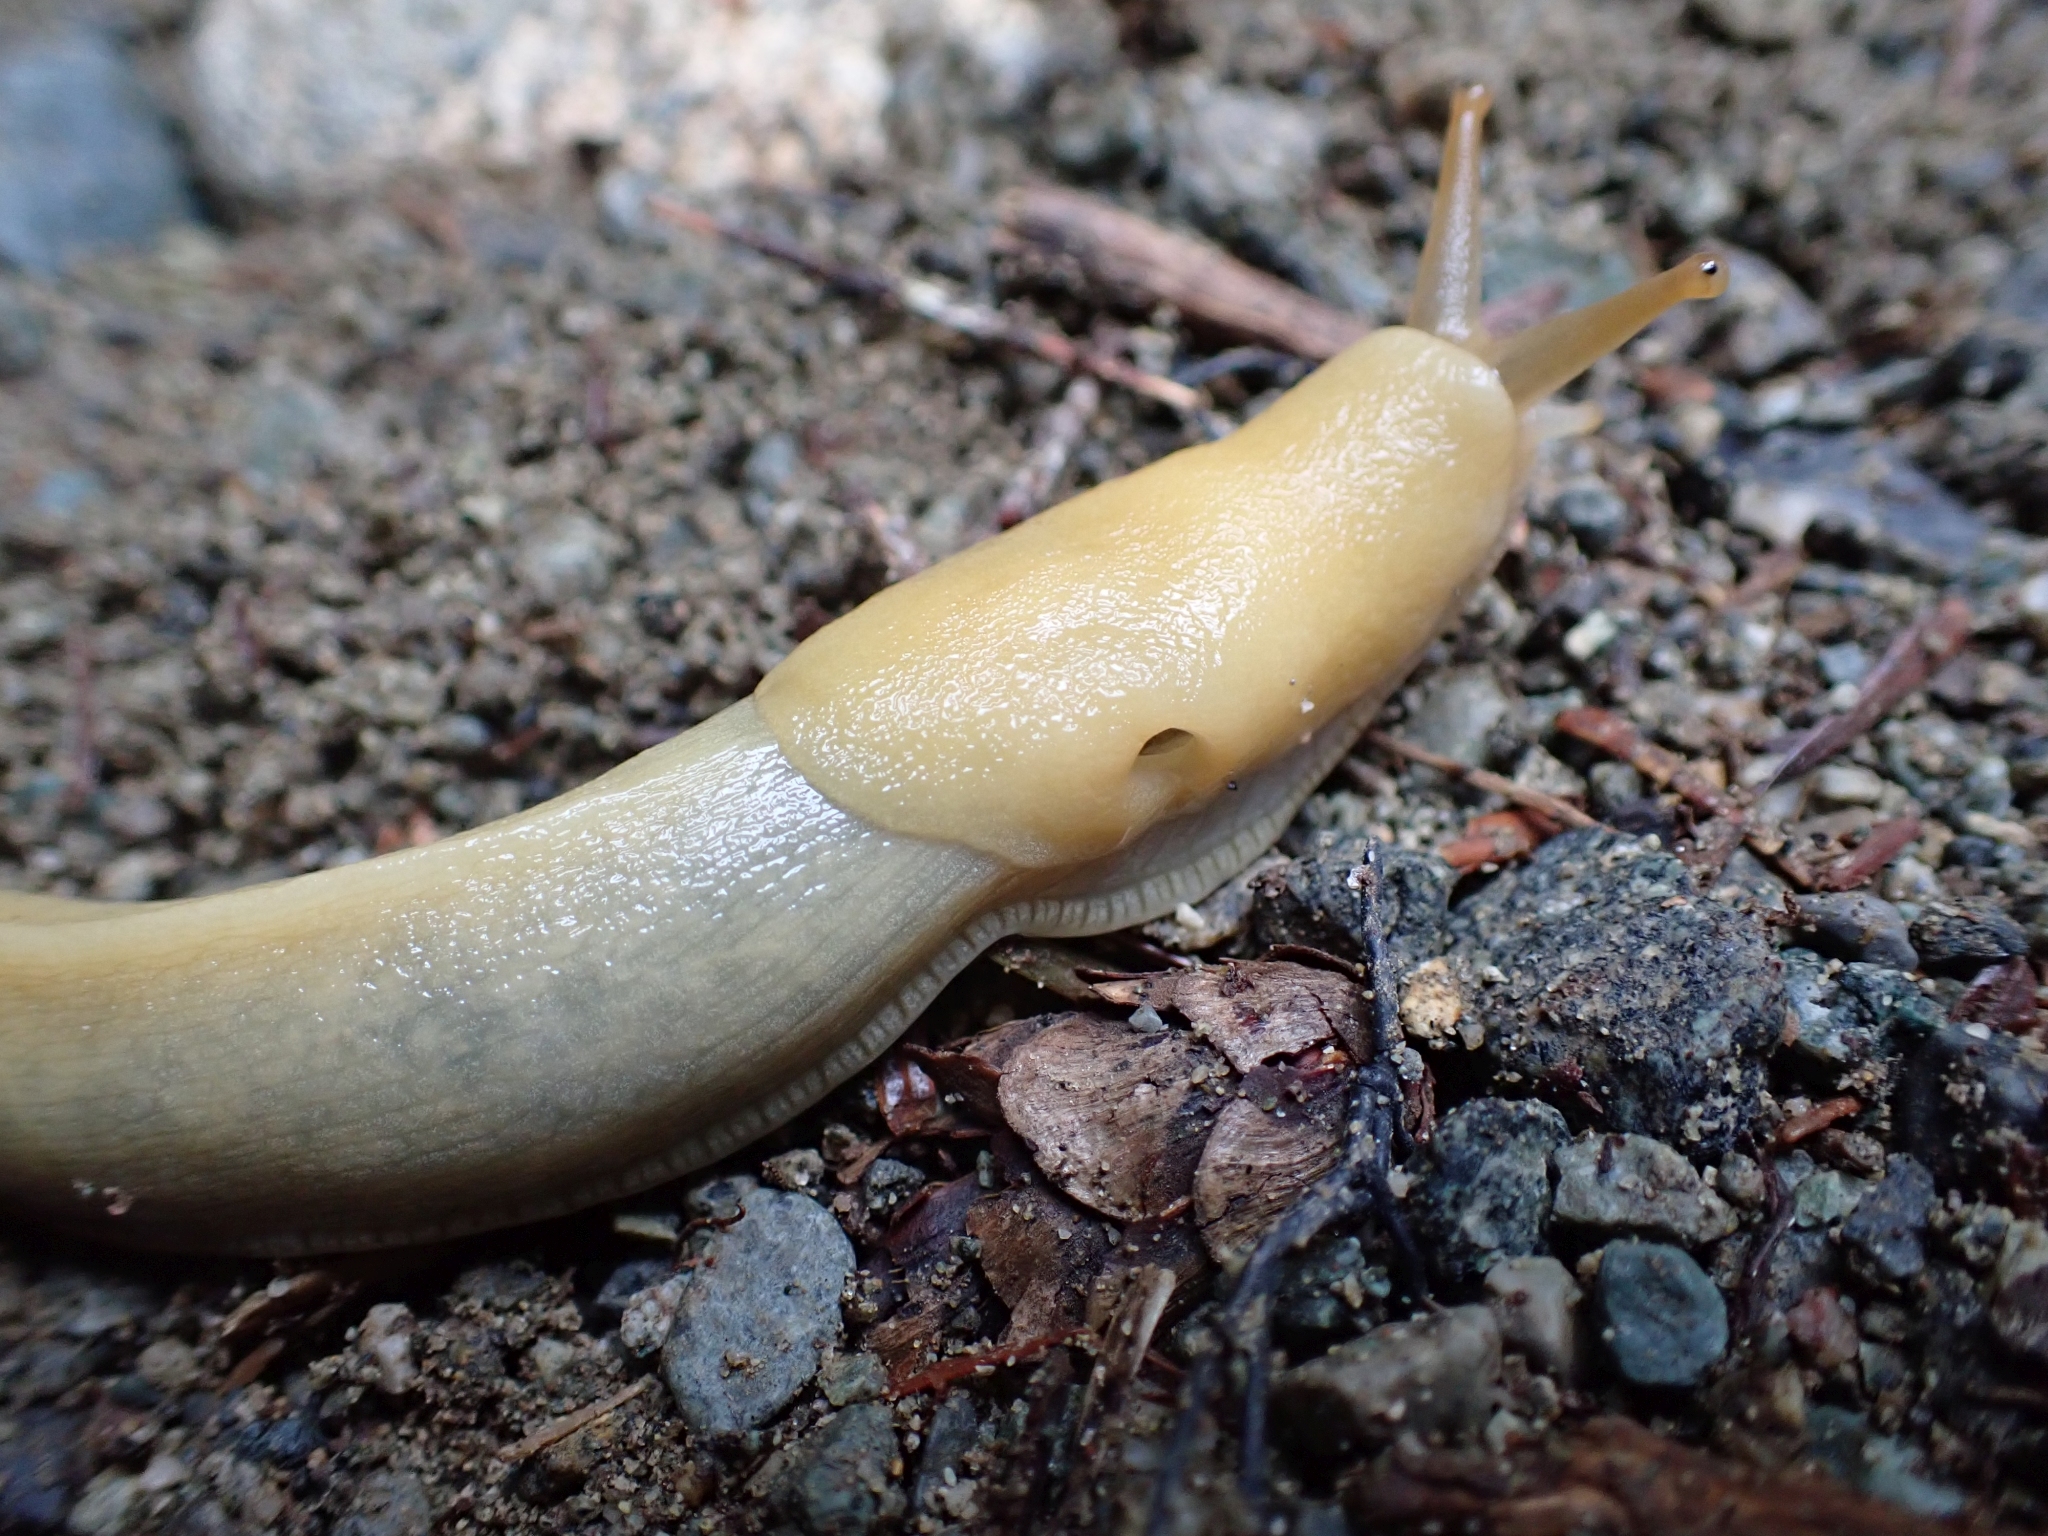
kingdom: Animalia
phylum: Mollusca
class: Gastropoda
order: Stylommatophora
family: Ariolimacidae
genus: Ariolimax
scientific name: Ariolimax columbianus
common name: Pacific banana slug
